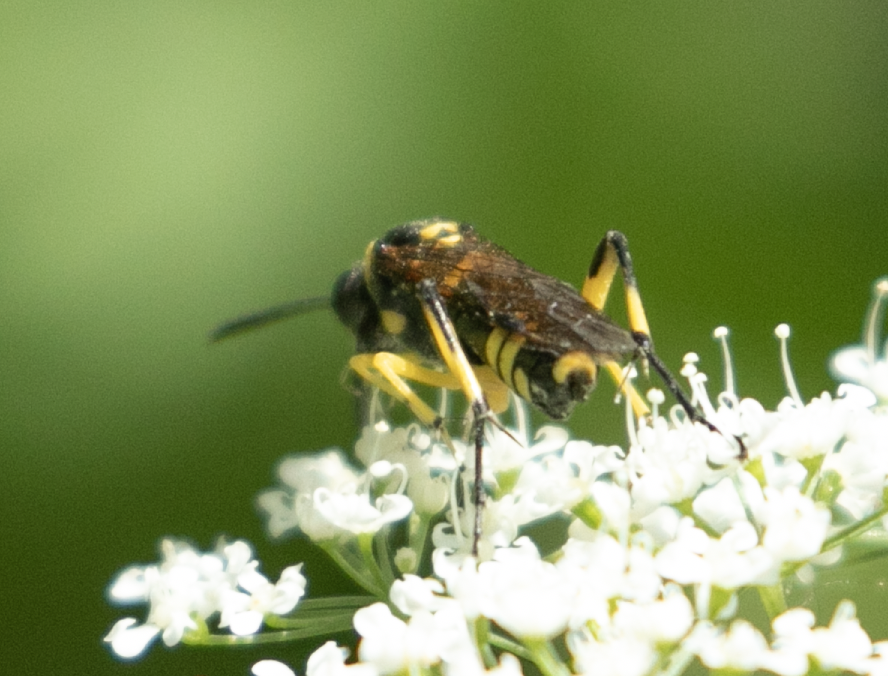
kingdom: Animalia
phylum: Arthropoda
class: Insecta
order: Hymenoptera
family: Tenthredinidae
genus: Macrophya
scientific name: Macrophya montana
